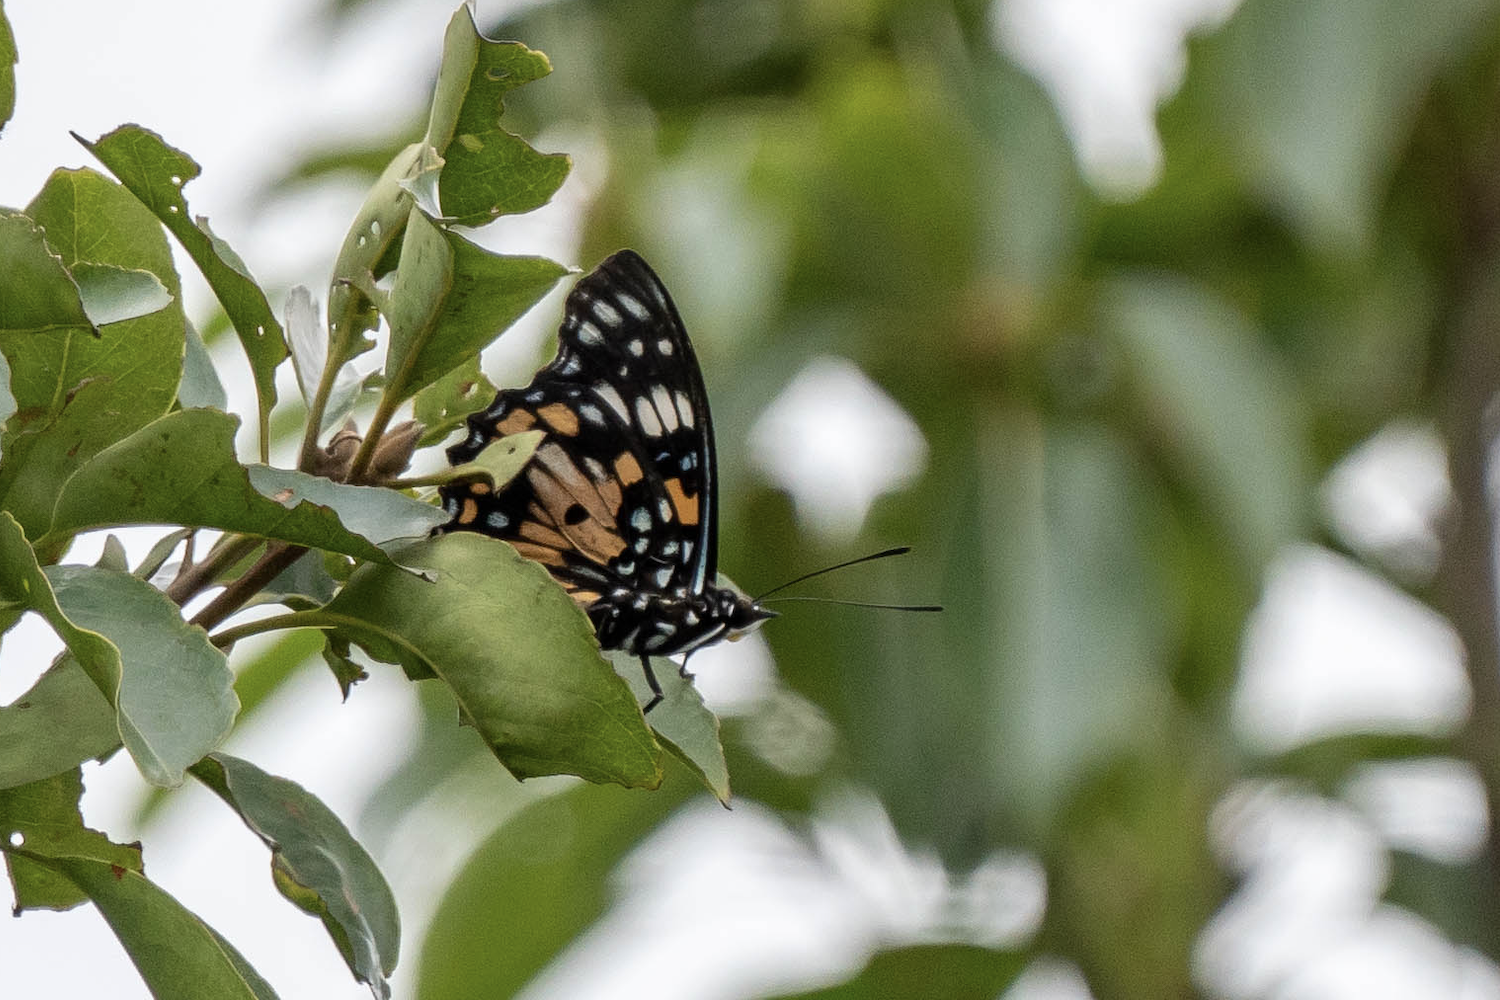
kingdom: Animalia
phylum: Arthropoda
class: Insecta
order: Lepidoptera
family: Nymphalidae
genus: Sephisa
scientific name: Sephisa chandra
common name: Eastern courtier
